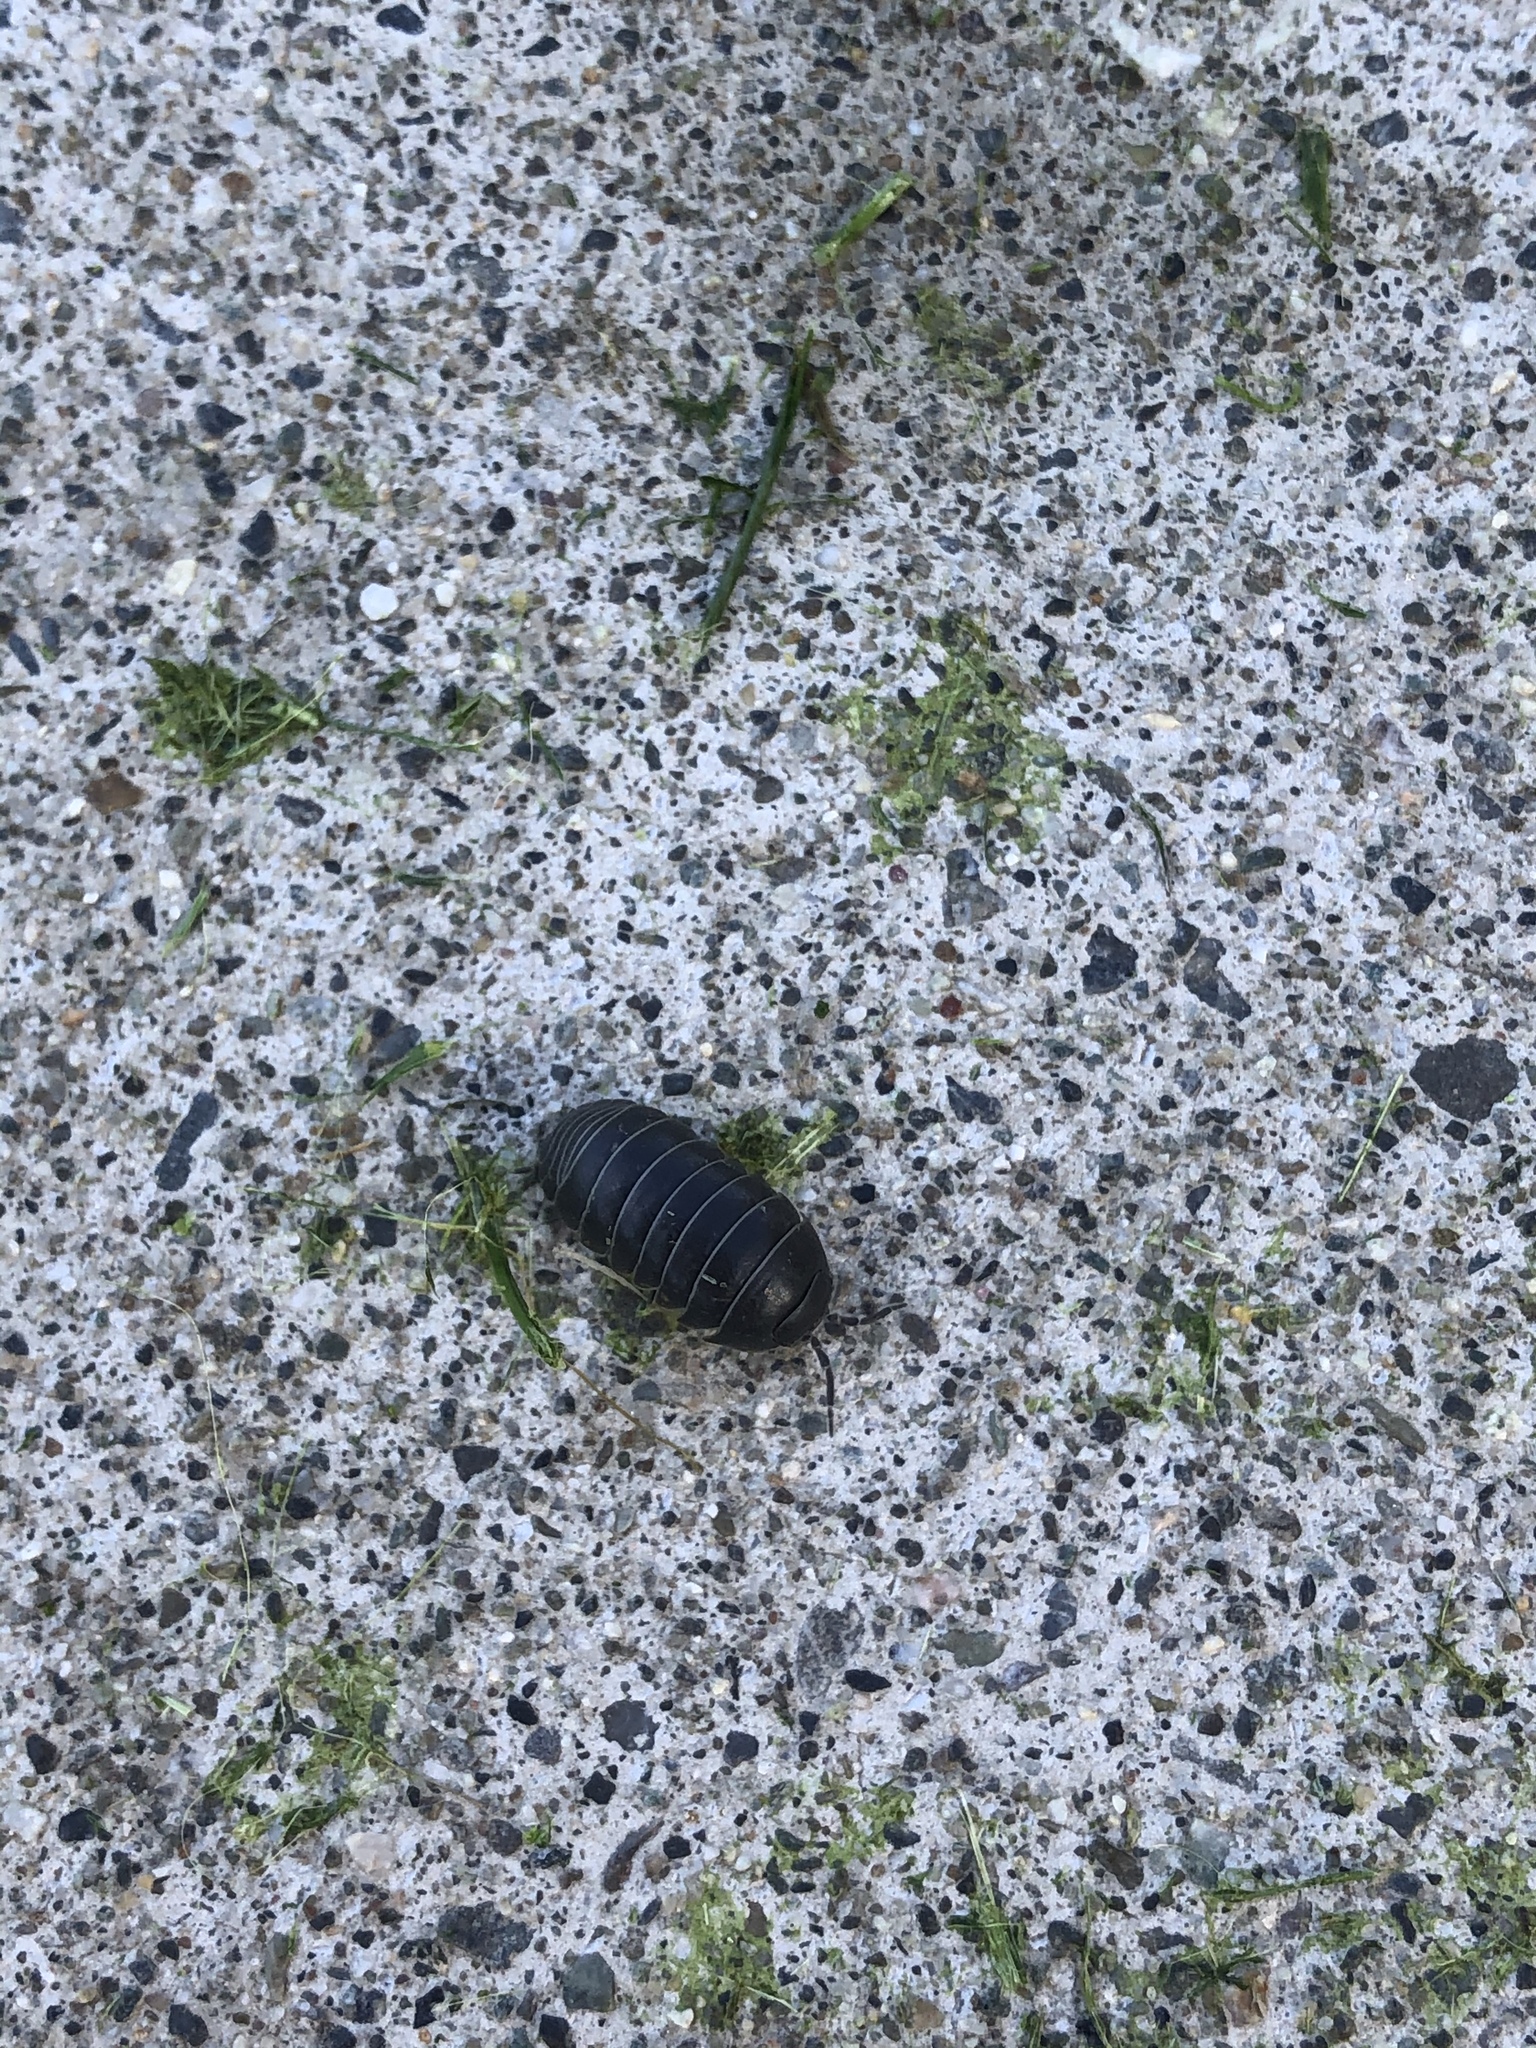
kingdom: Animalia
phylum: Arthropoda
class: Malacostraca
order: Isopoda
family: Armadillidiidae
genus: Armadillidium
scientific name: Armadillidium vulgare
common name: Common pill woodlouse
